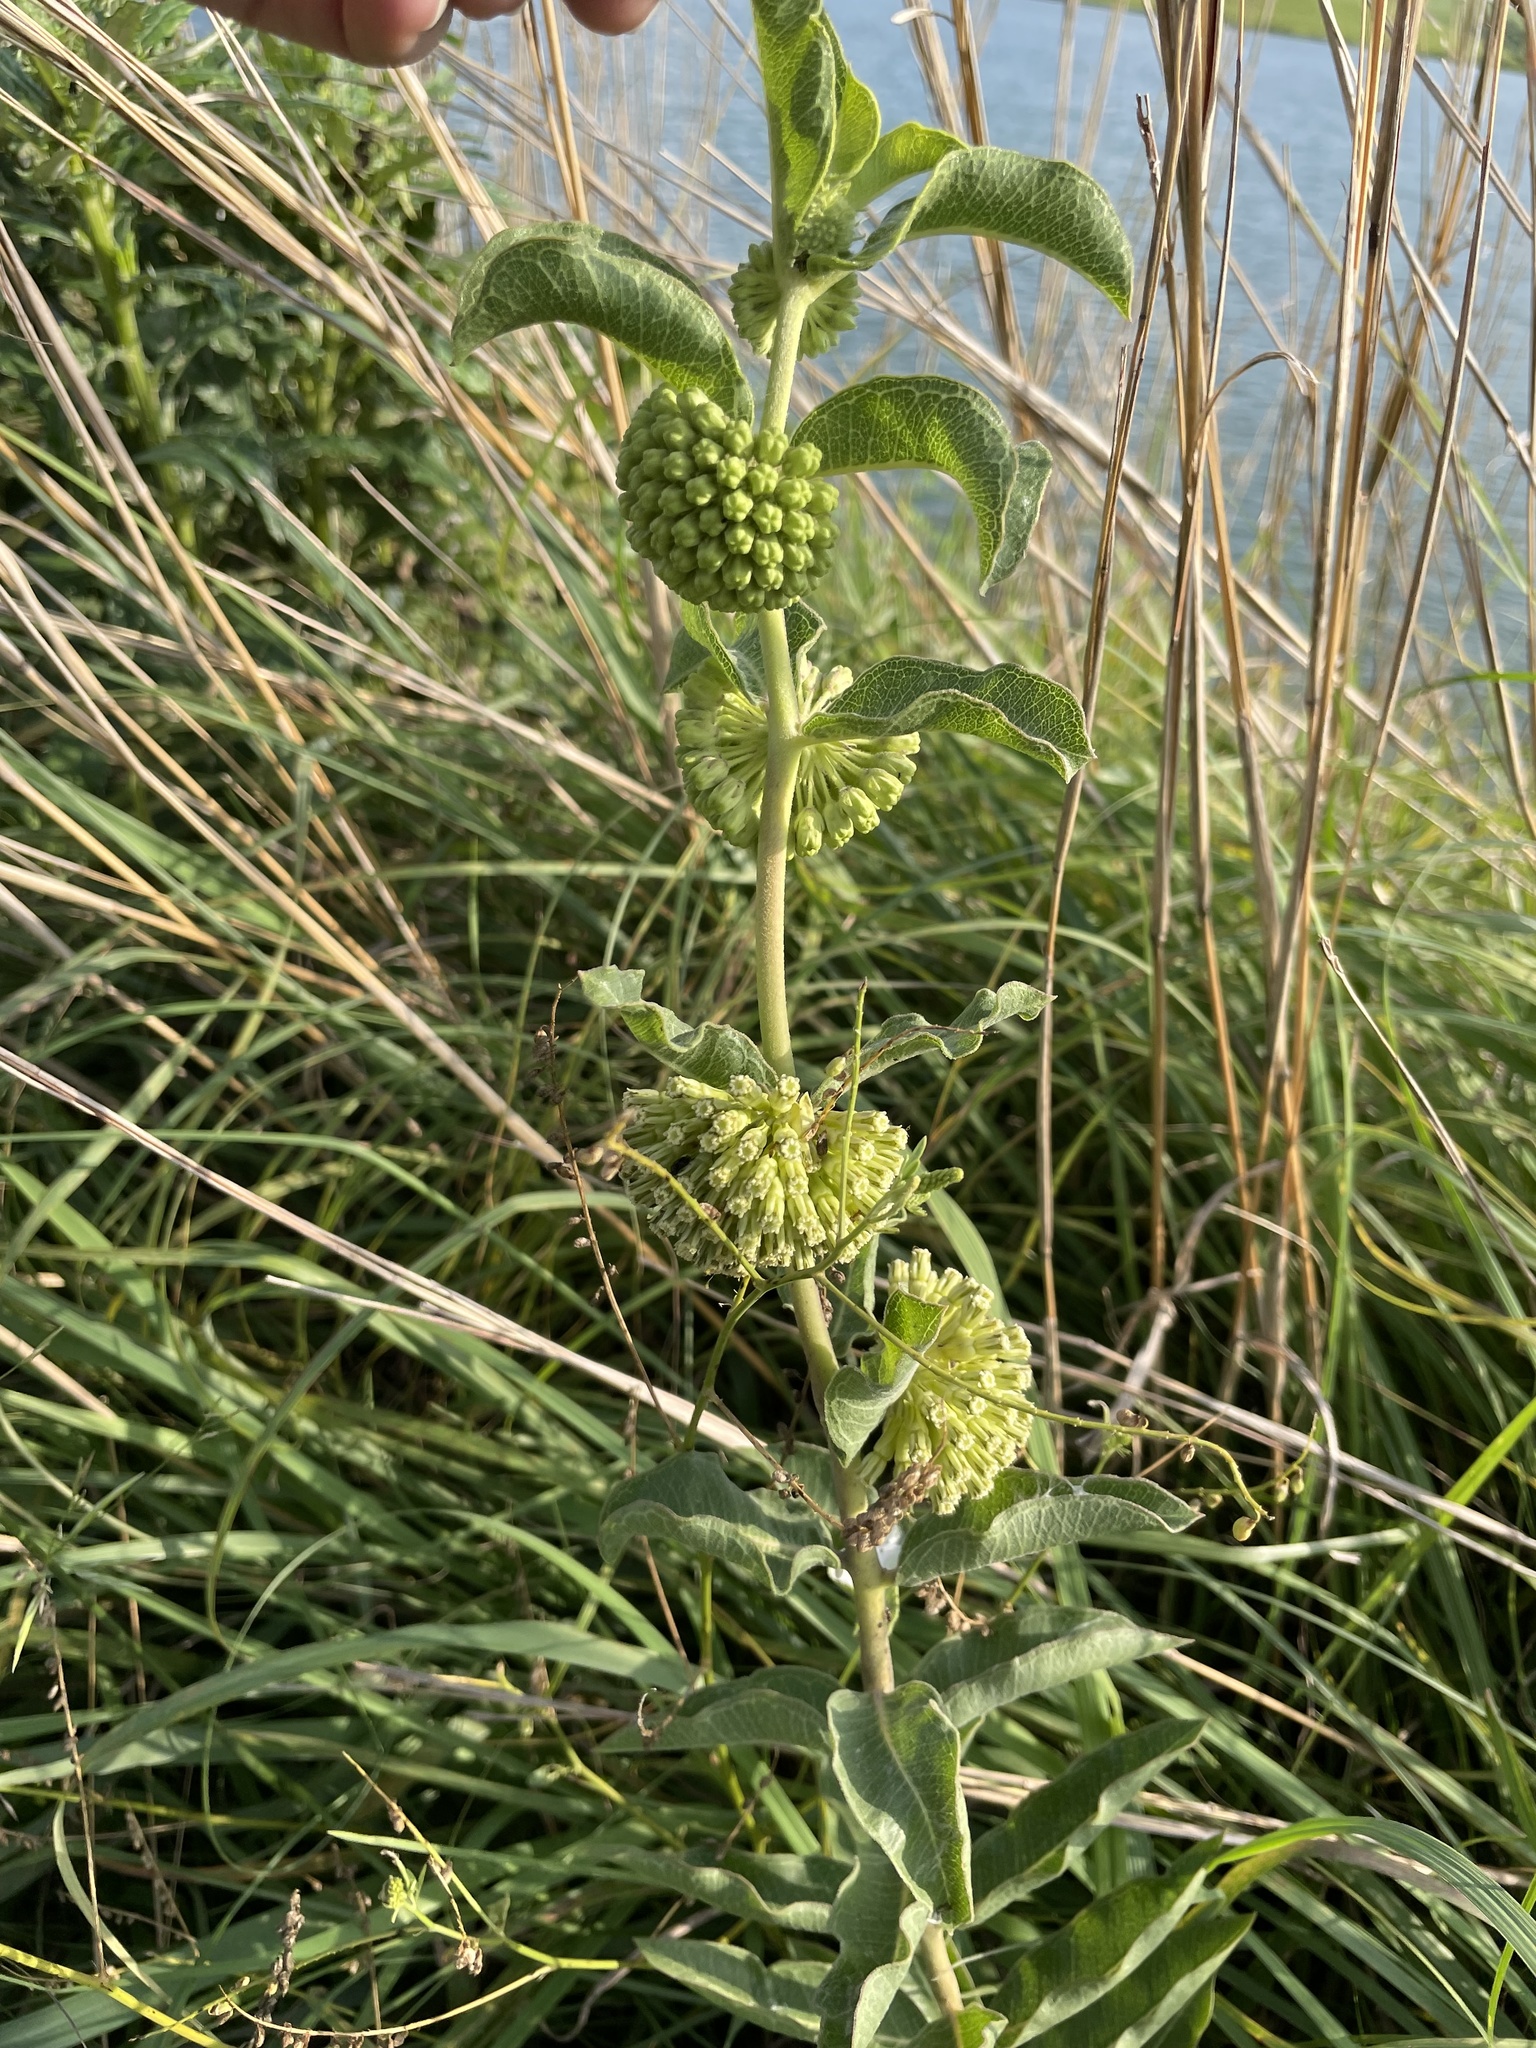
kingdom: Plantae
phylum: Tracheophyta
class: Magnoliopsida
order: Gentianales
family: Apocynaceae
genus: Asclepias
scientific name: Asclepias viridiflora
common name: Green comet milkweed
